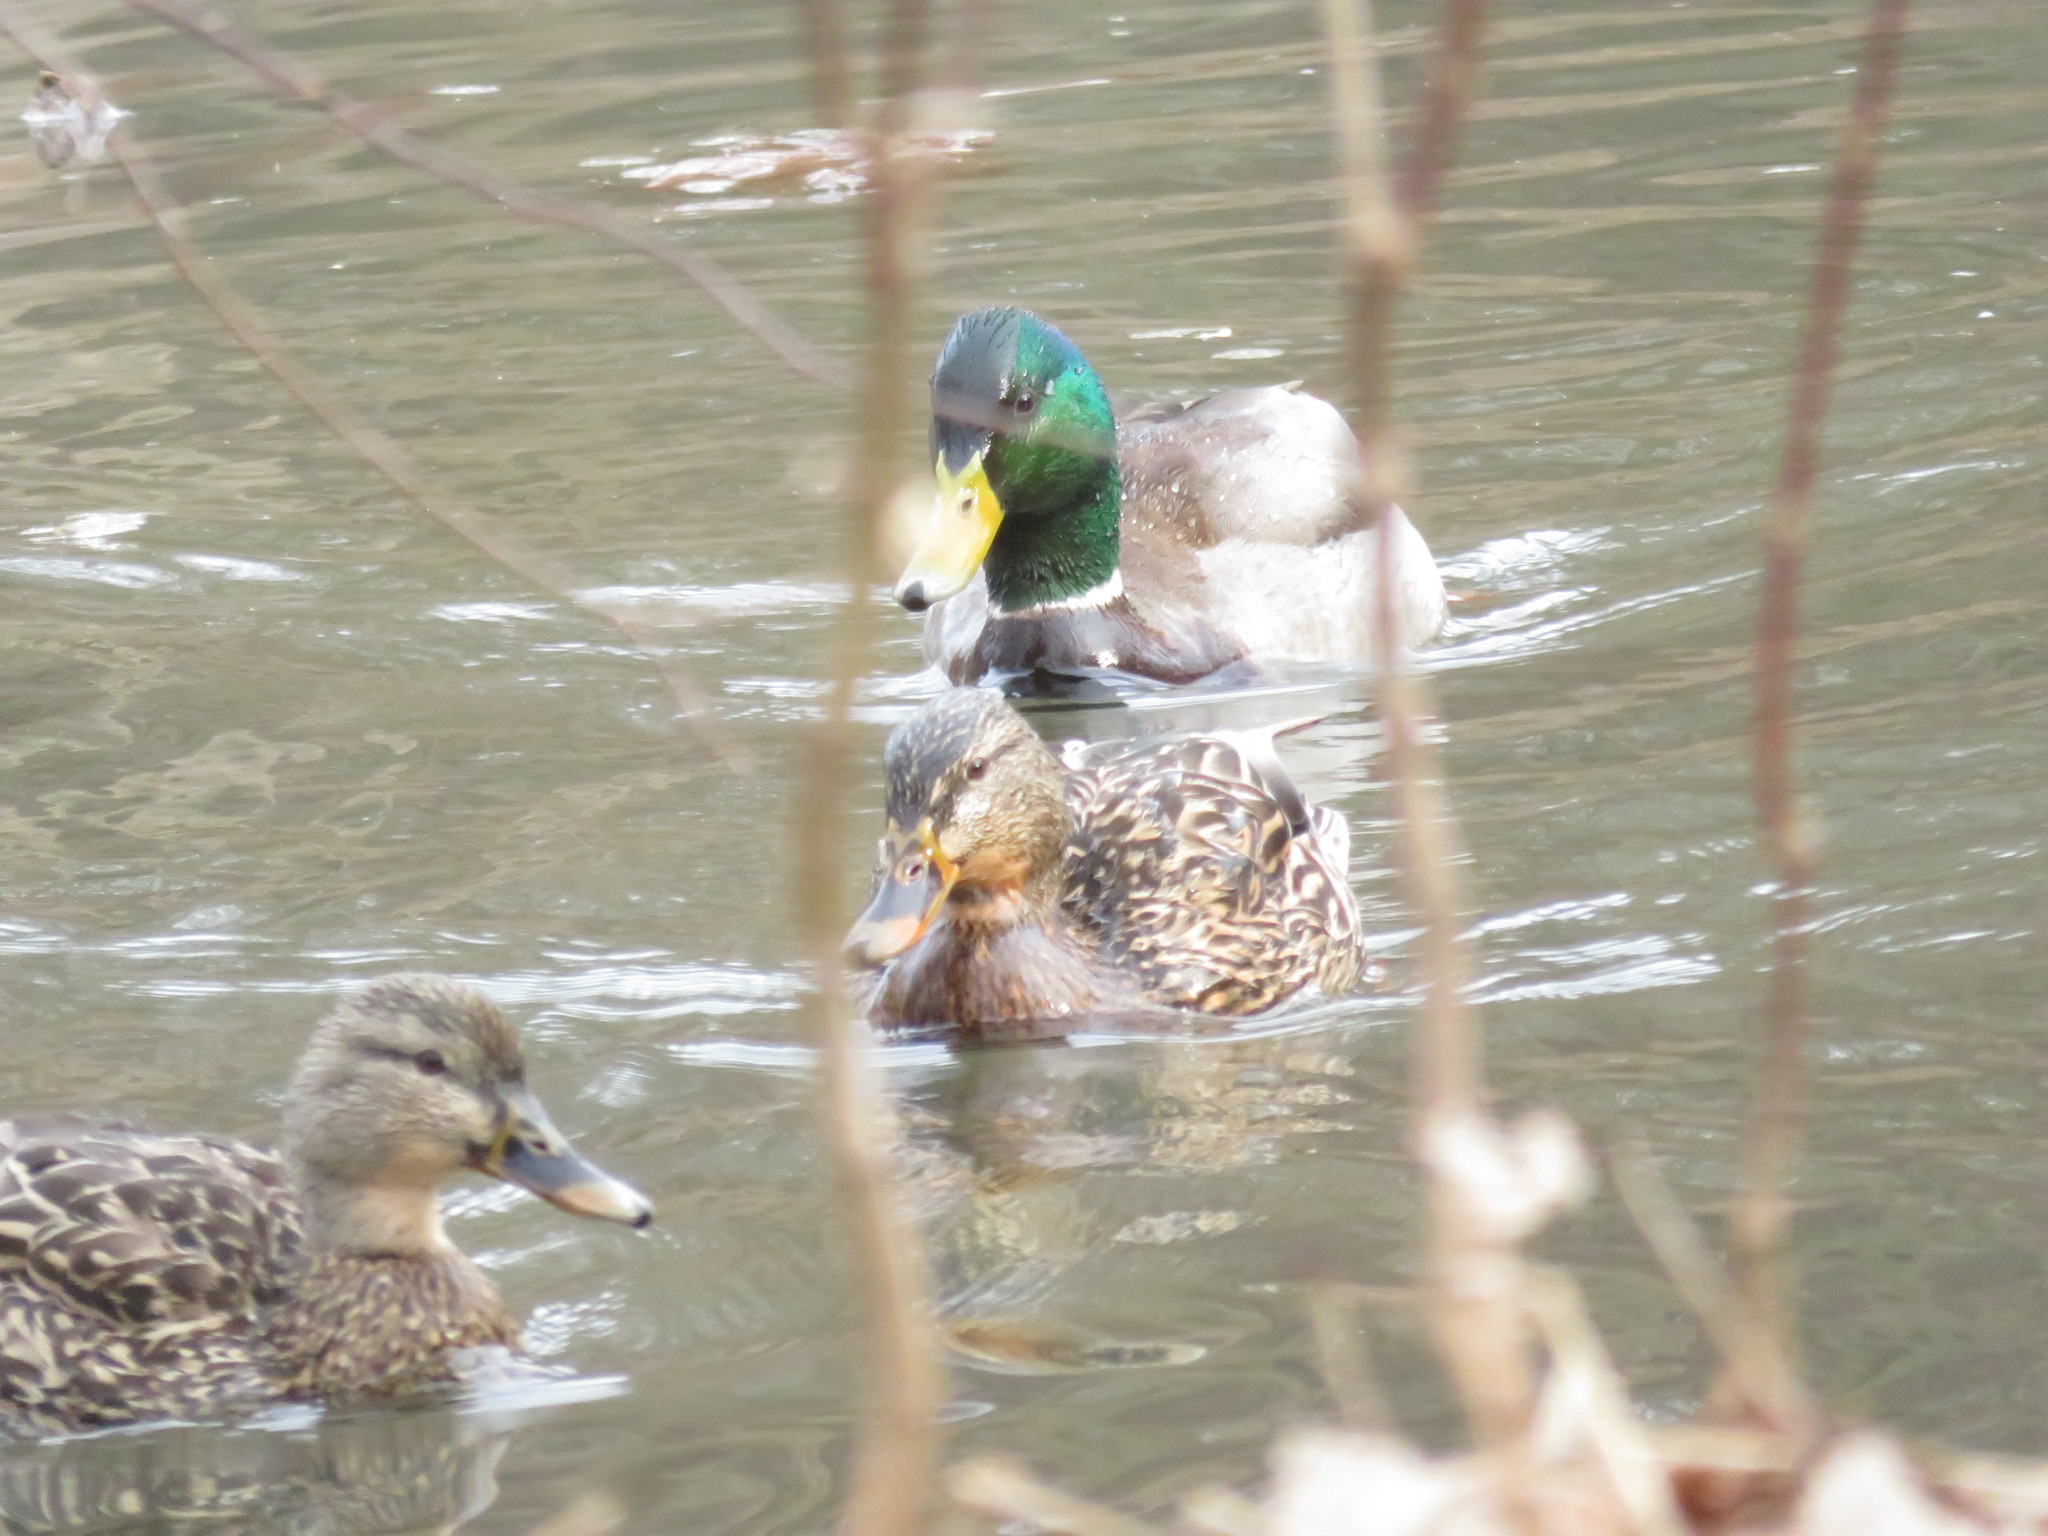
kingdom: Animalia
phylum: Chordata
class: Aves
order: Anseriformes
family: Anatidae
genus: Anas
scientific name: Anas platyrhynchos
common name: Mallard
